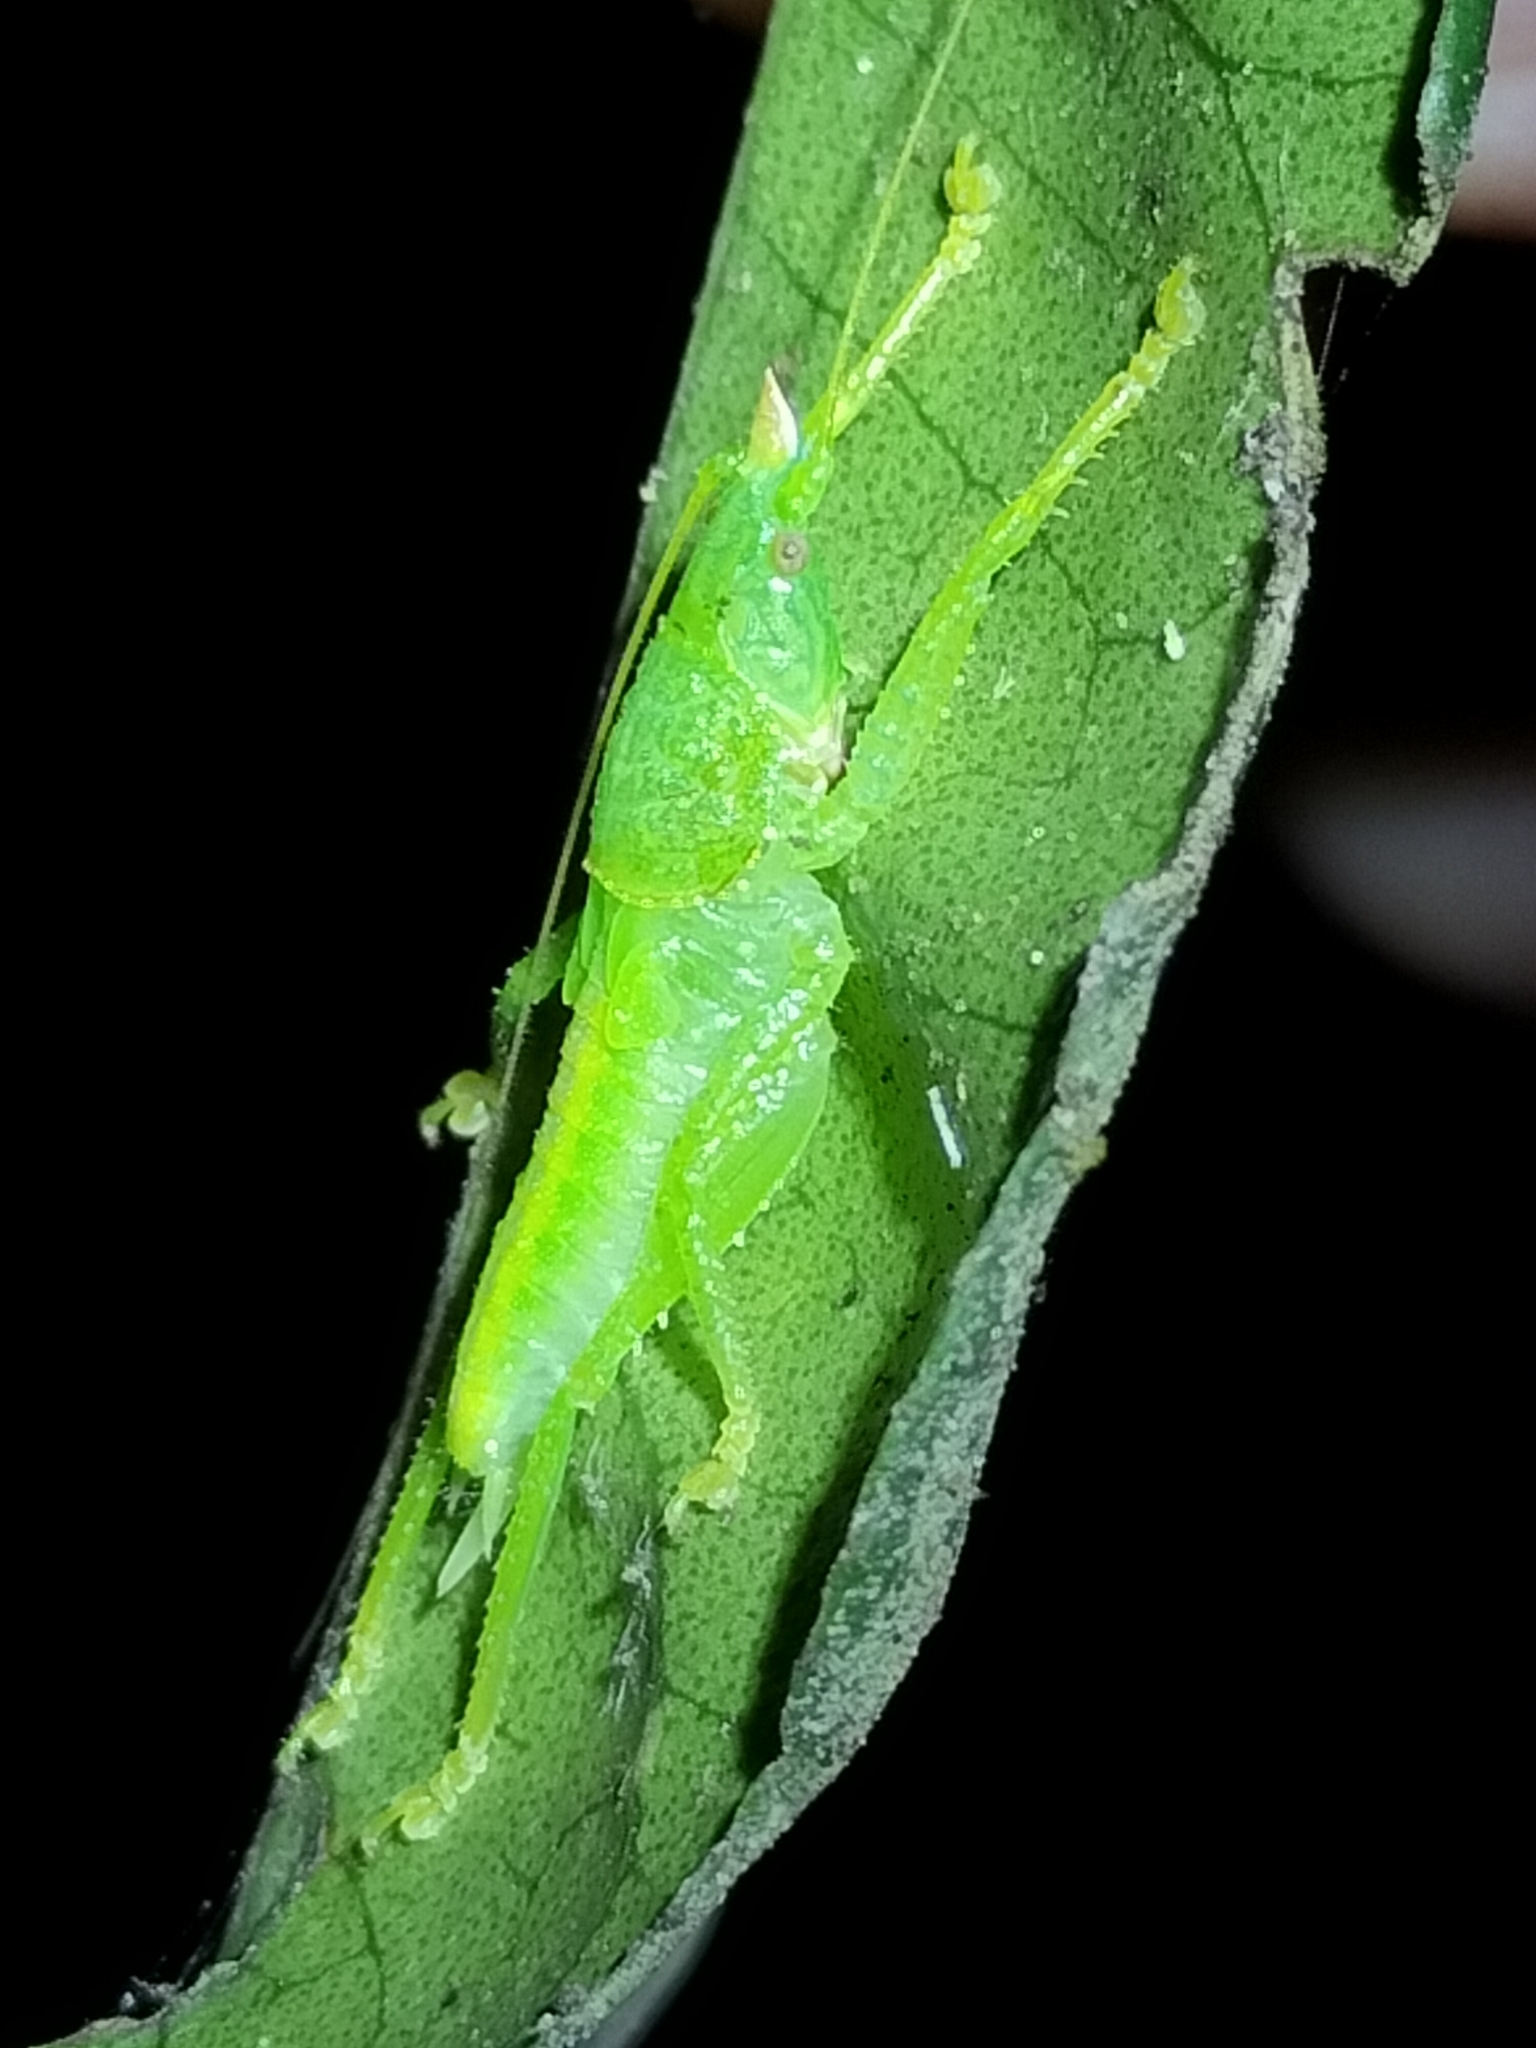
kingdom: Animalia
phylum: Arthropoda
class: Insecta
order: Orthoptera
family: Tettigoniidae
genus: Emeraldagraecia
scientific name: Emeraldagraecia munggarifrons
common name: Pink-faced emerald
